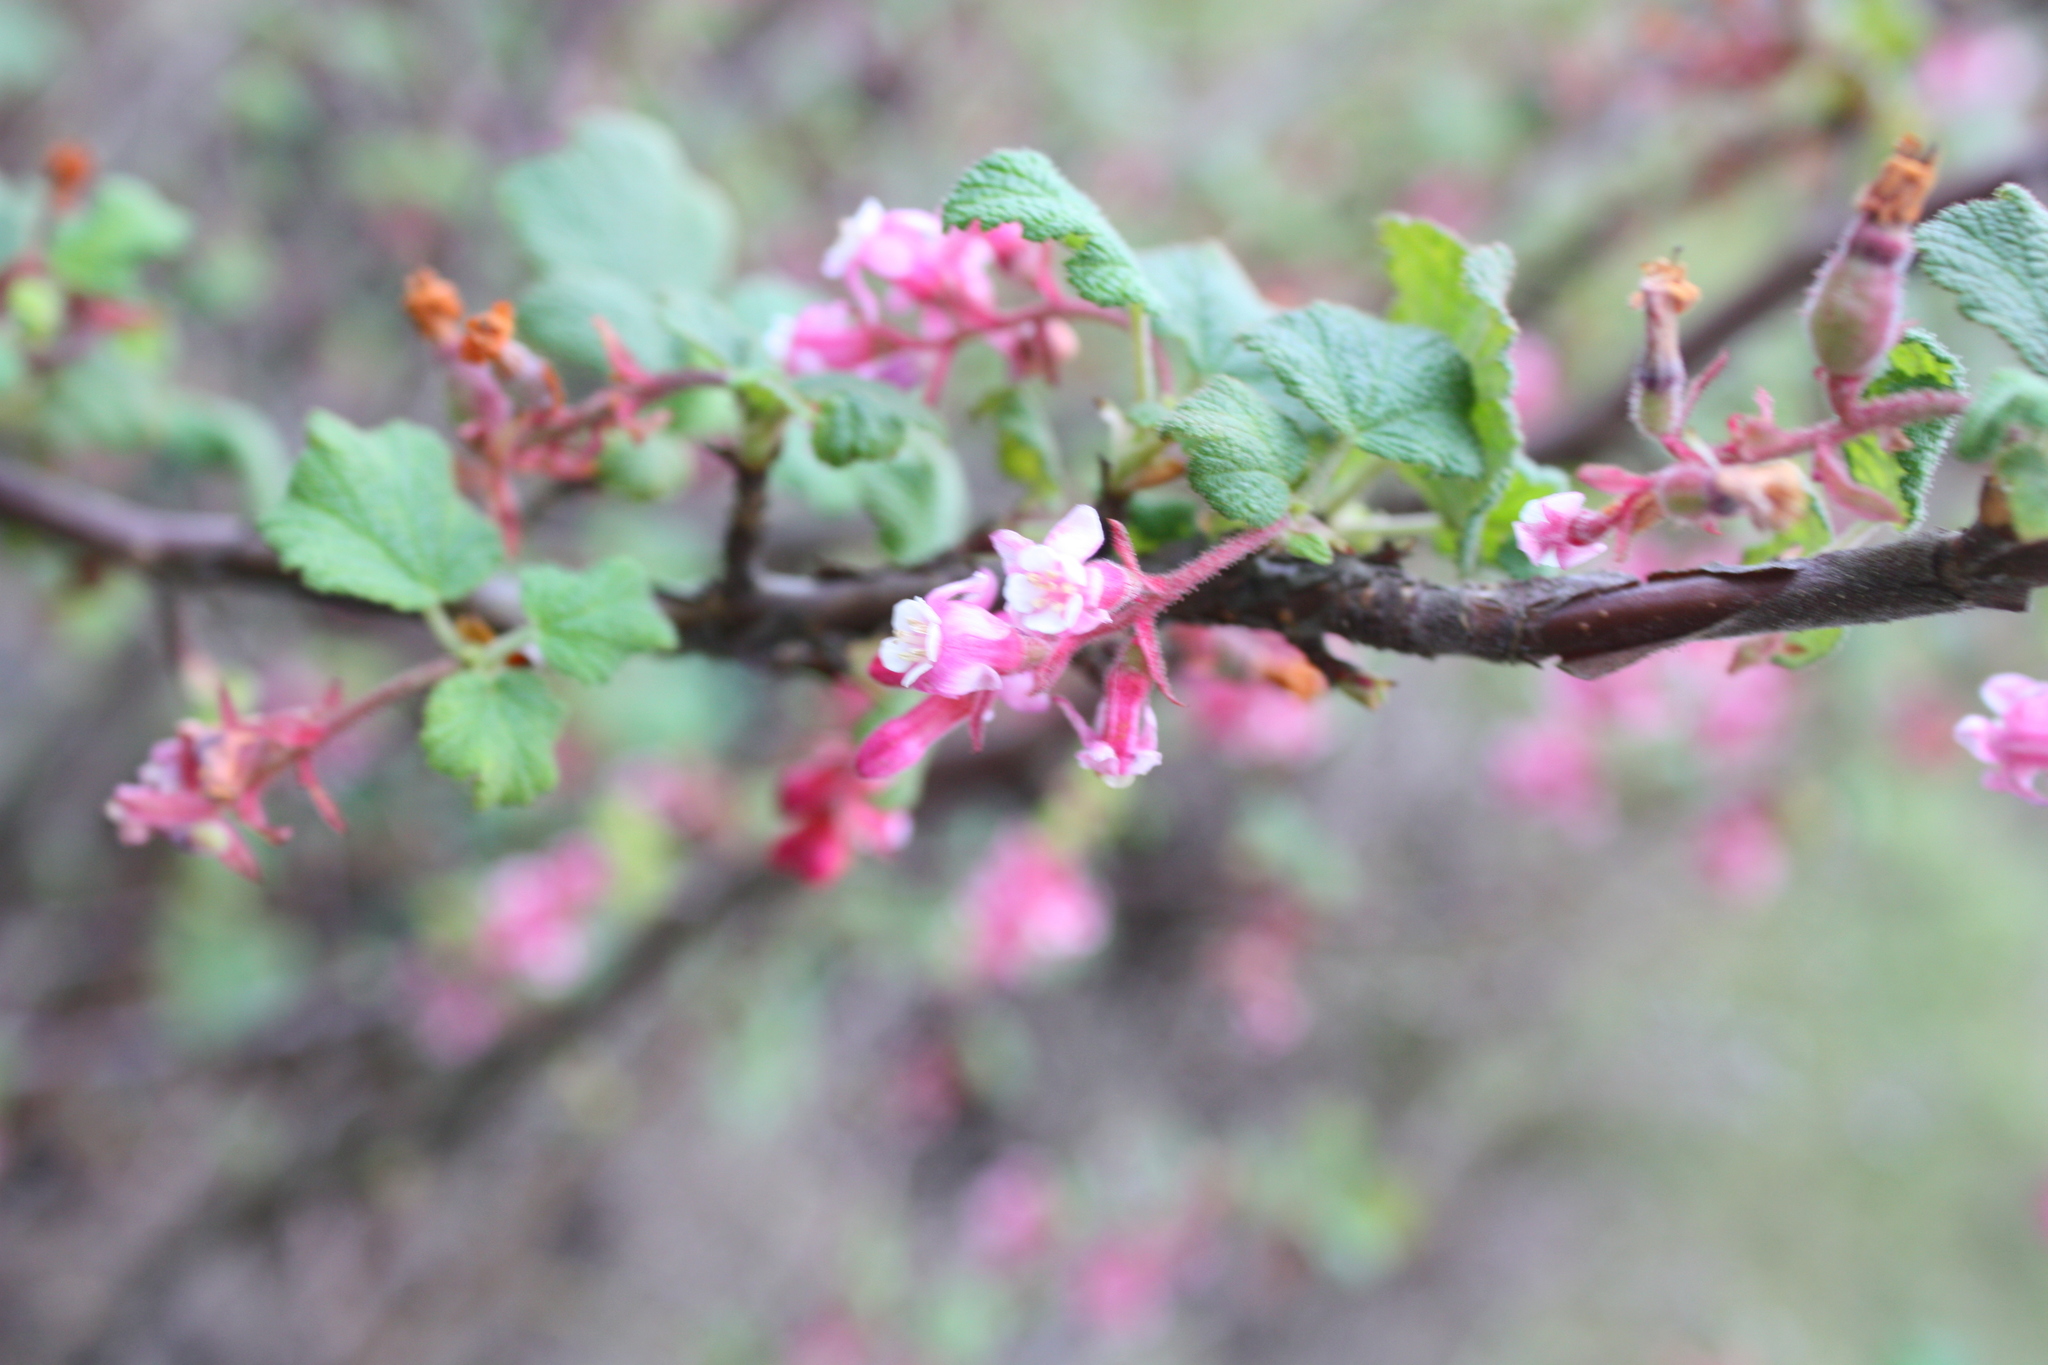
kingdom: Plantae
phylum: Tracheophyta
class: Magnoliopsida
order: Saxifragales
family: Grossulariaceae
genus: Ribes
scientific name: Ribes malvaceum
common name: Chaparral currant
